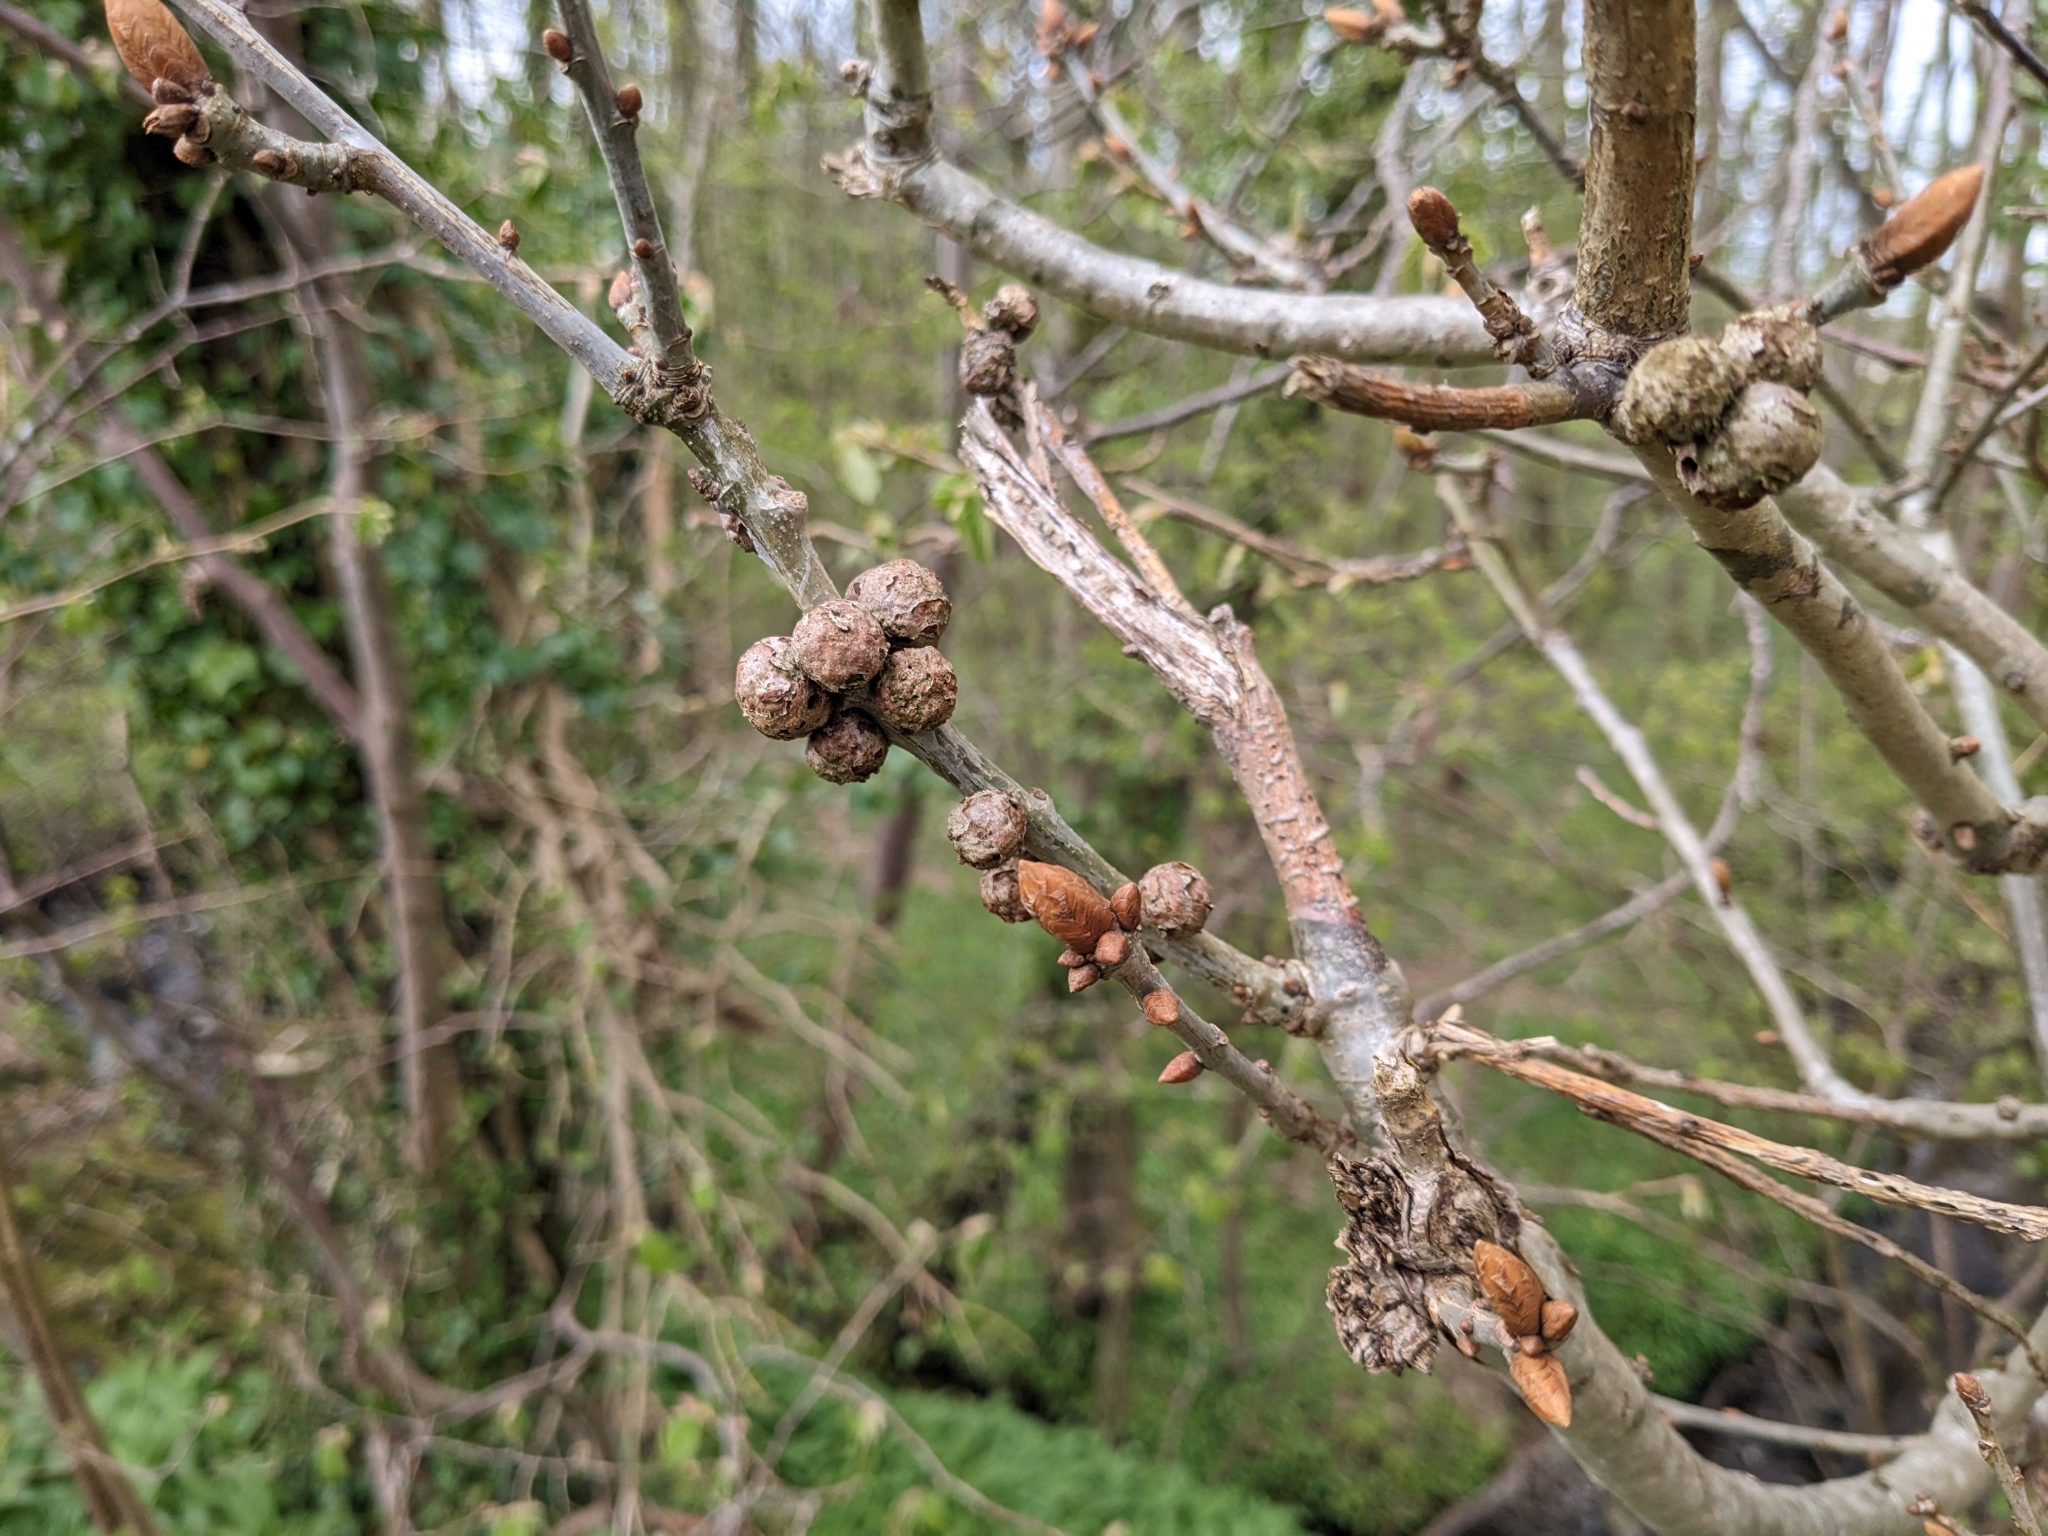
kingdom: Animalia
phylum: Arthropoda
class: Insecta
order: Hymenoptera
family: Cynipidae
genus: Andricus
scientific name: Andricus lignicolus
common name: Cola-nut gall
